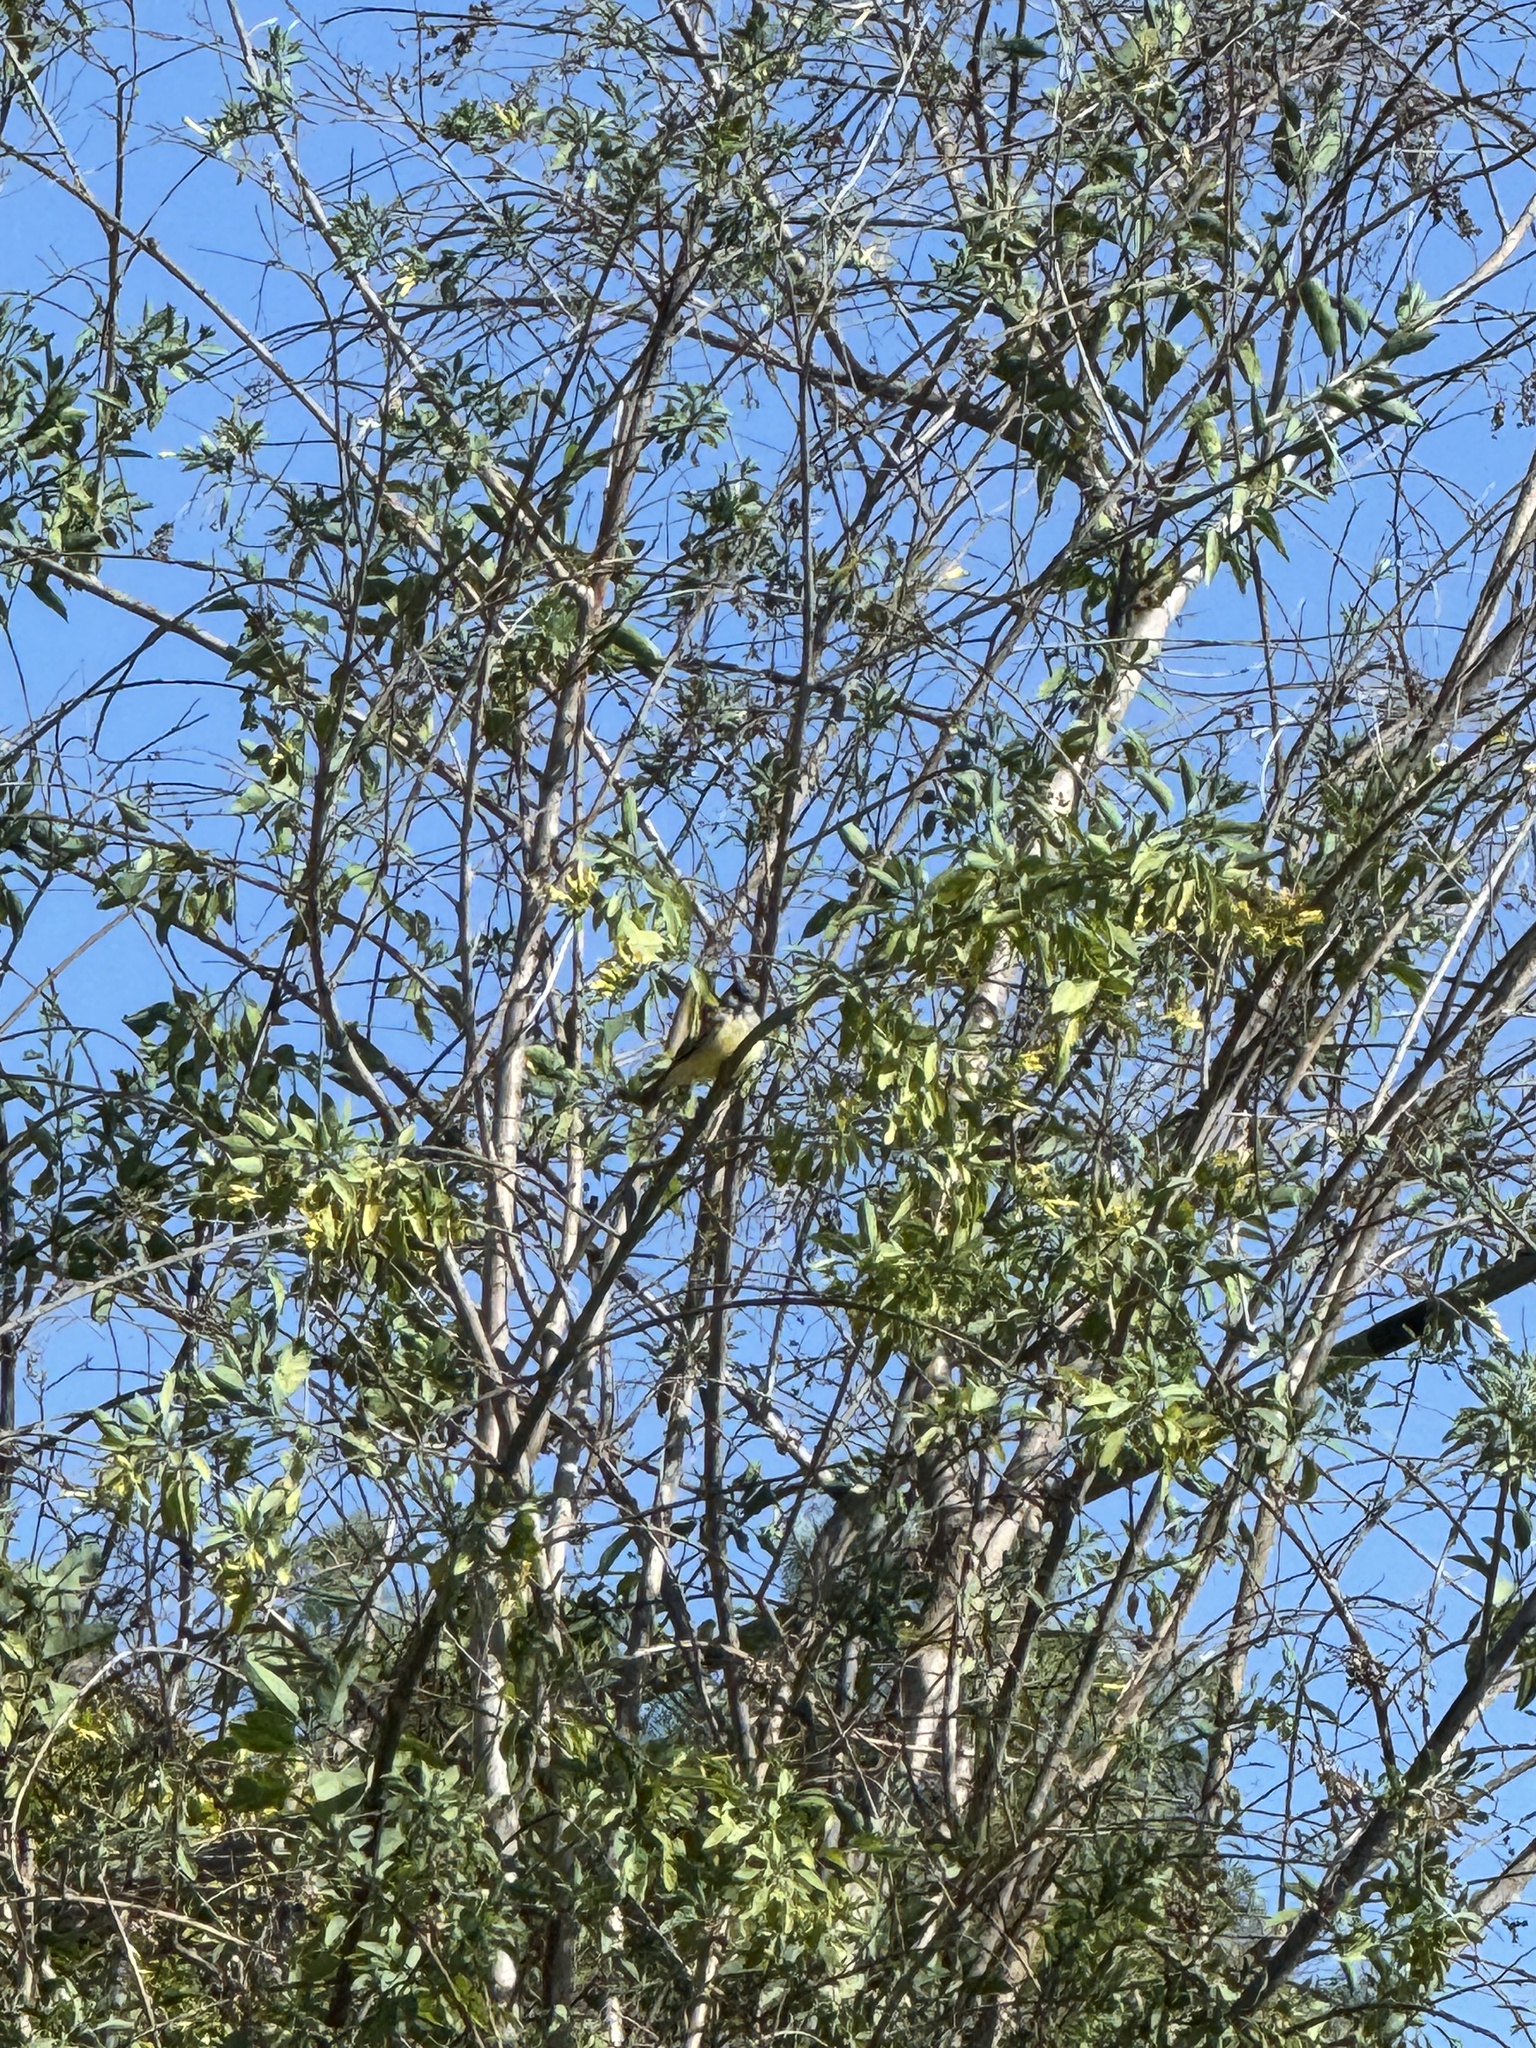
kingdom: Animalia
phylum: Chordata
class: Aves
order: Passeriformes
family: Tyrannidae
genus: Tyrannus
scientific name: Tyrannus vociferans
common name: Cassin's kingbird
